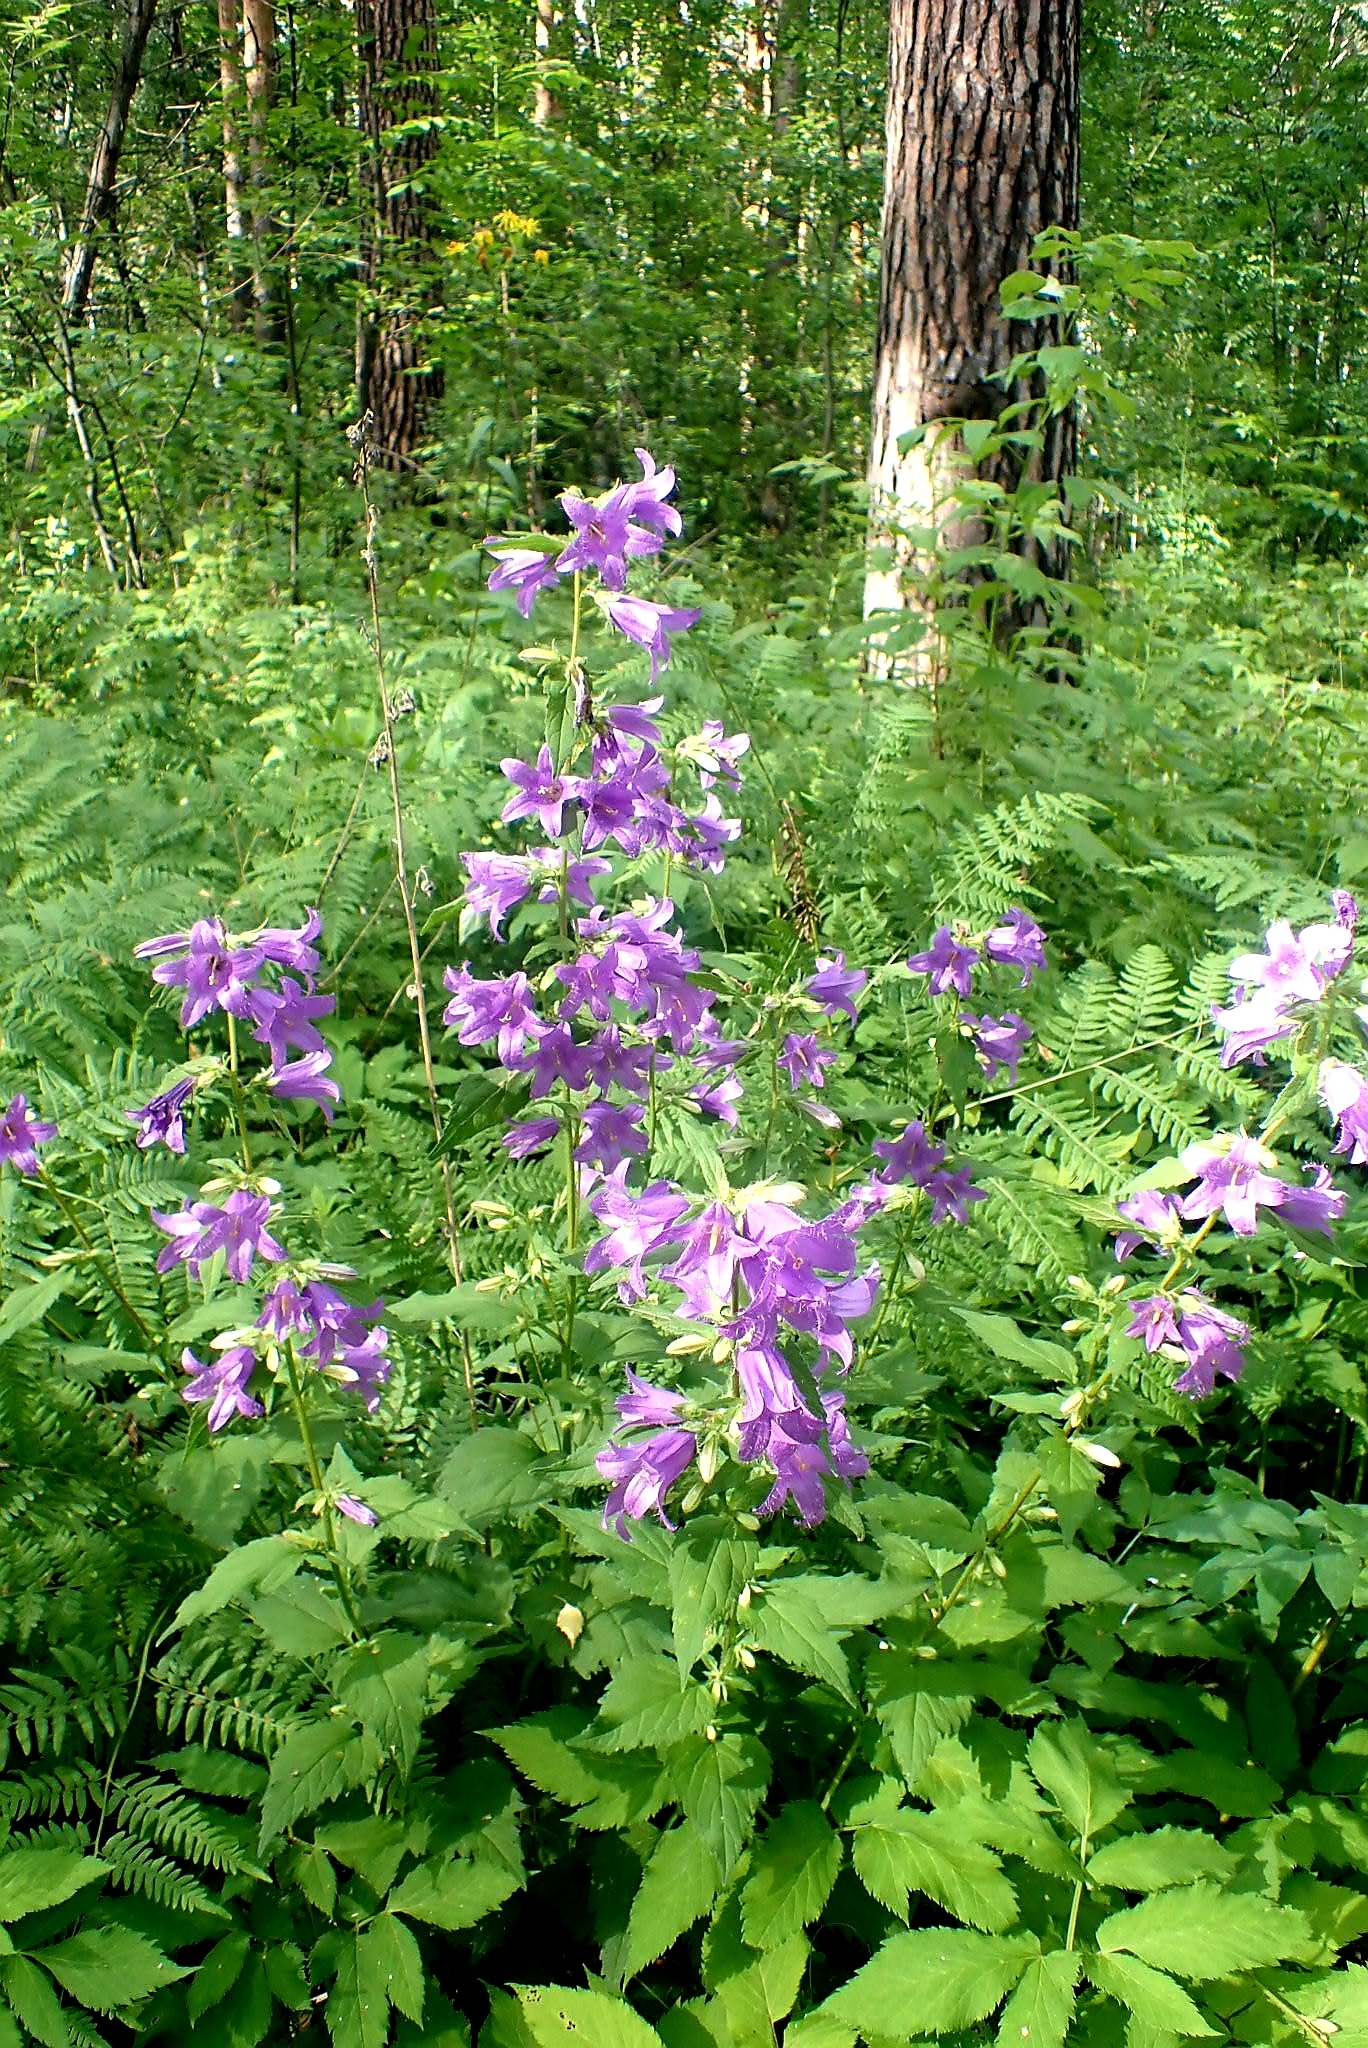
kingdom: Plantae
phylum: Tracheophyta
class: Magnoliopsida
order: Asterales
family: Campanulaceae
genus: Campanula
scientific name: Campanula trachelium
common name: Nettle-leaved bellflower
